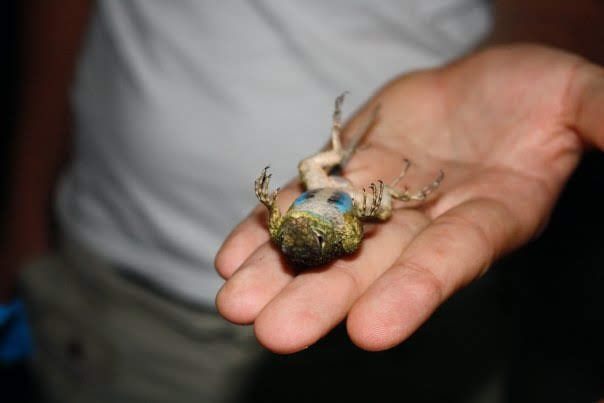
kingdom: Animalia
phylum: Chordata
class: Squamata
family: Phrynosomatidae
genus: Sceloporus
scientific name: Sceloporus malachiticus
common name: Green spiny lizard
